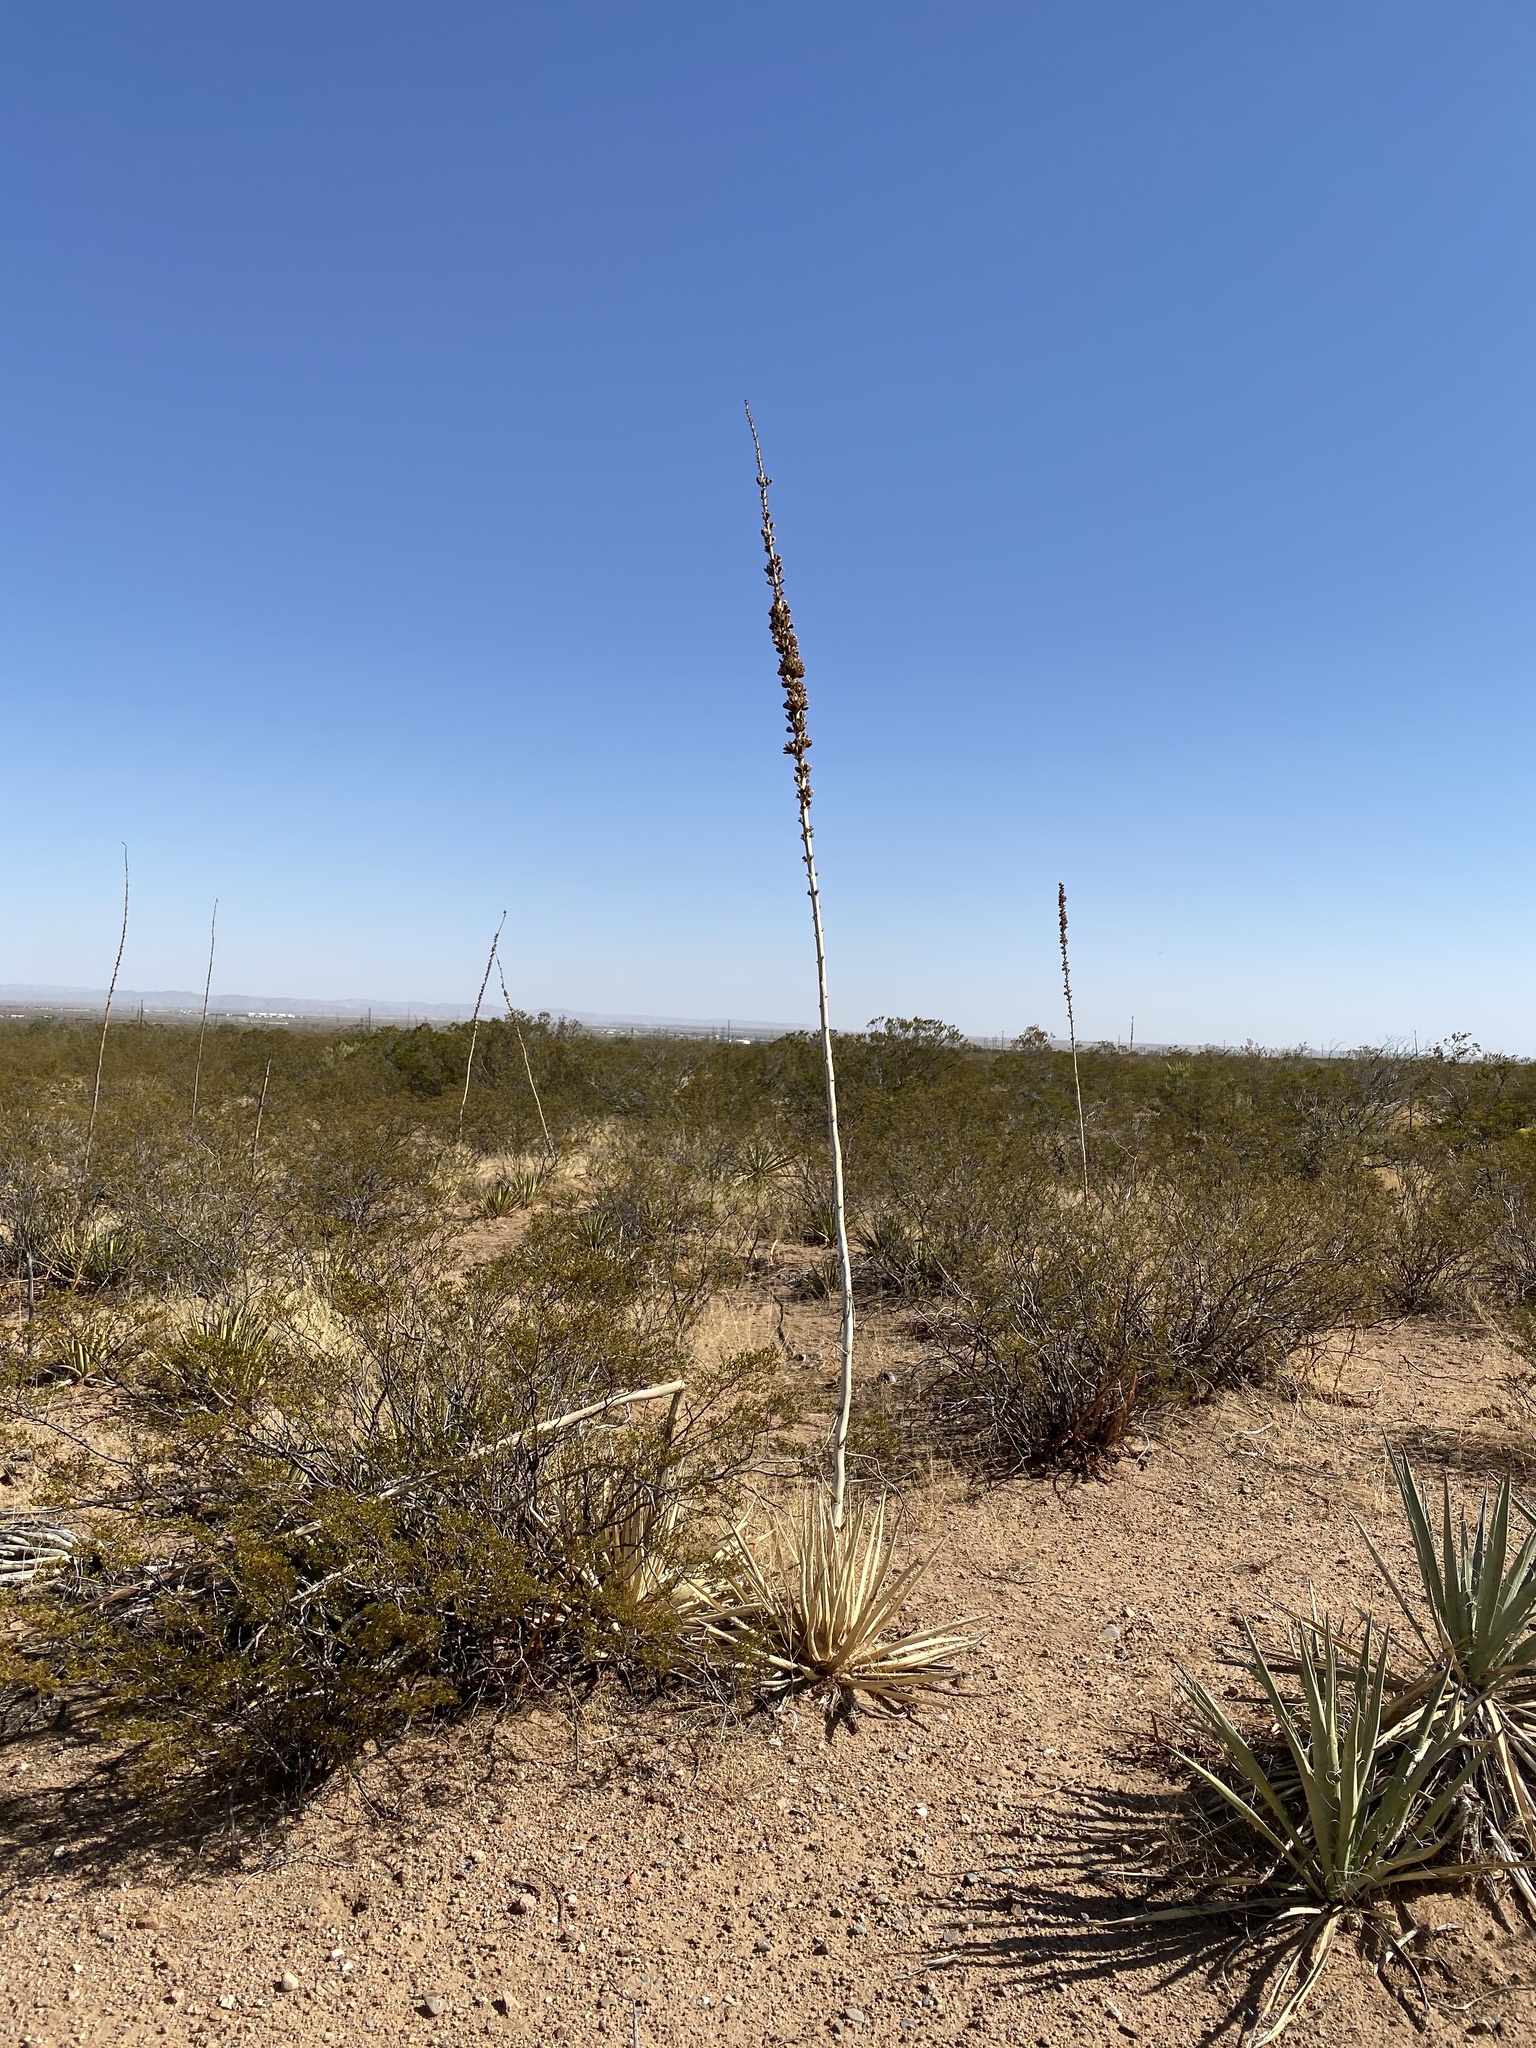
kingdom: Plantae
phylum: Tracheophyta
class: Liliopsida
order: Asparagales
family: Asparagaceae
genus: Agave
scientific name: Agave lechuguilla
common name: Lecheguilla agave
